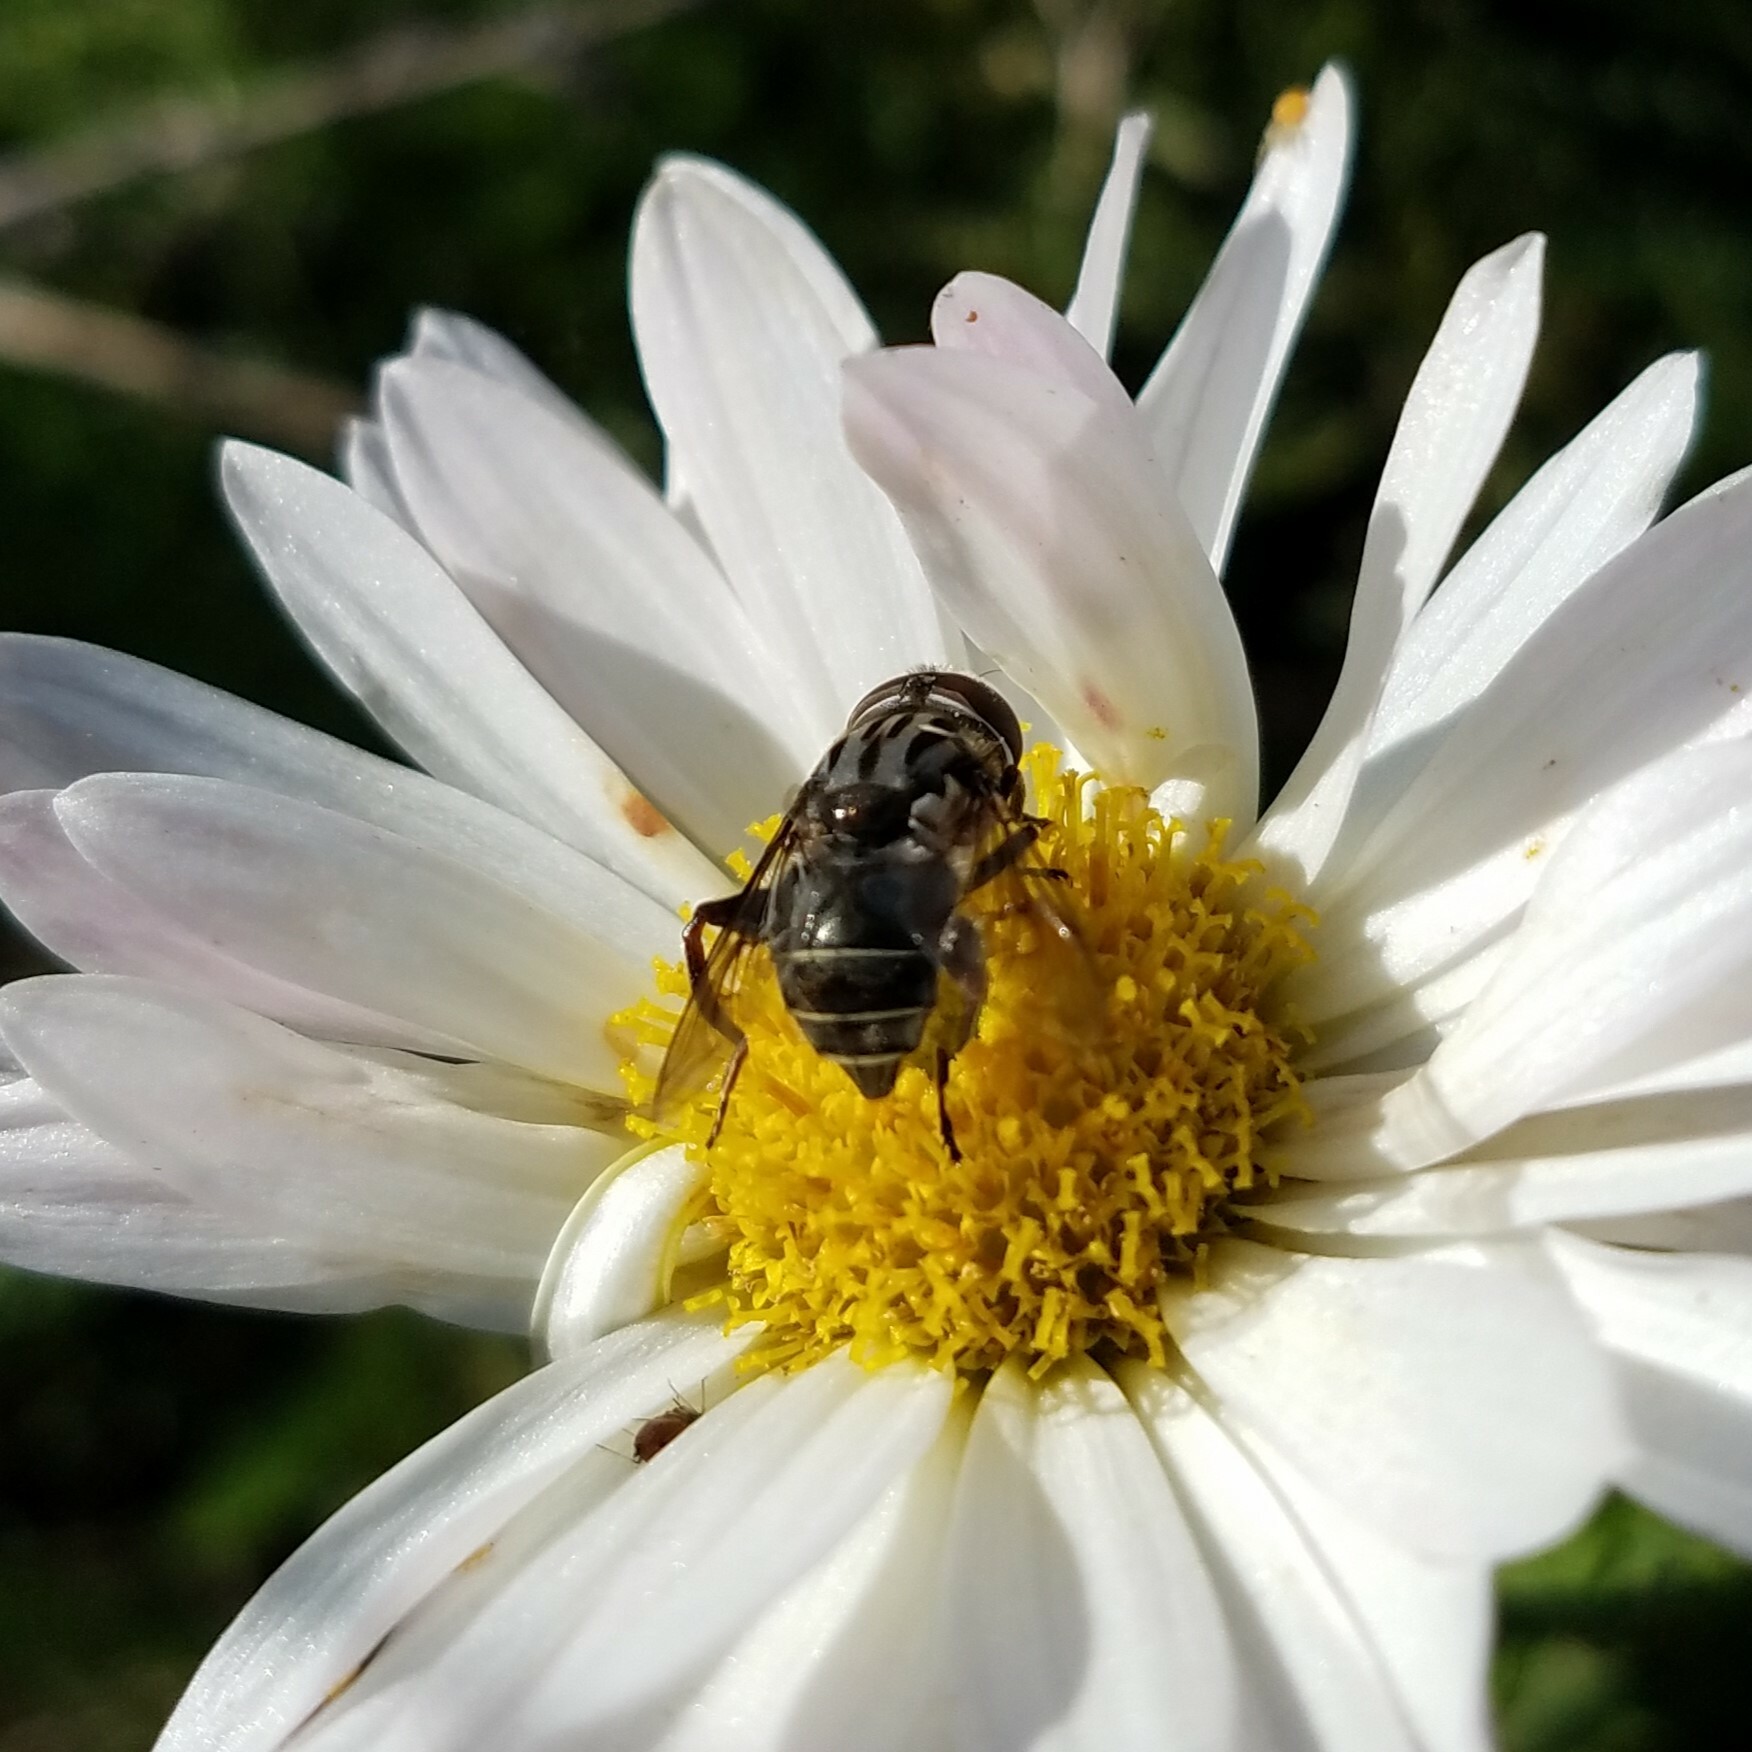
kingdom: Animalia
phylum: Arthropoda
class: Insecta
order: Diptera
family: Syrphidae
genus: Palpada
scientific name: Palpada furcata
